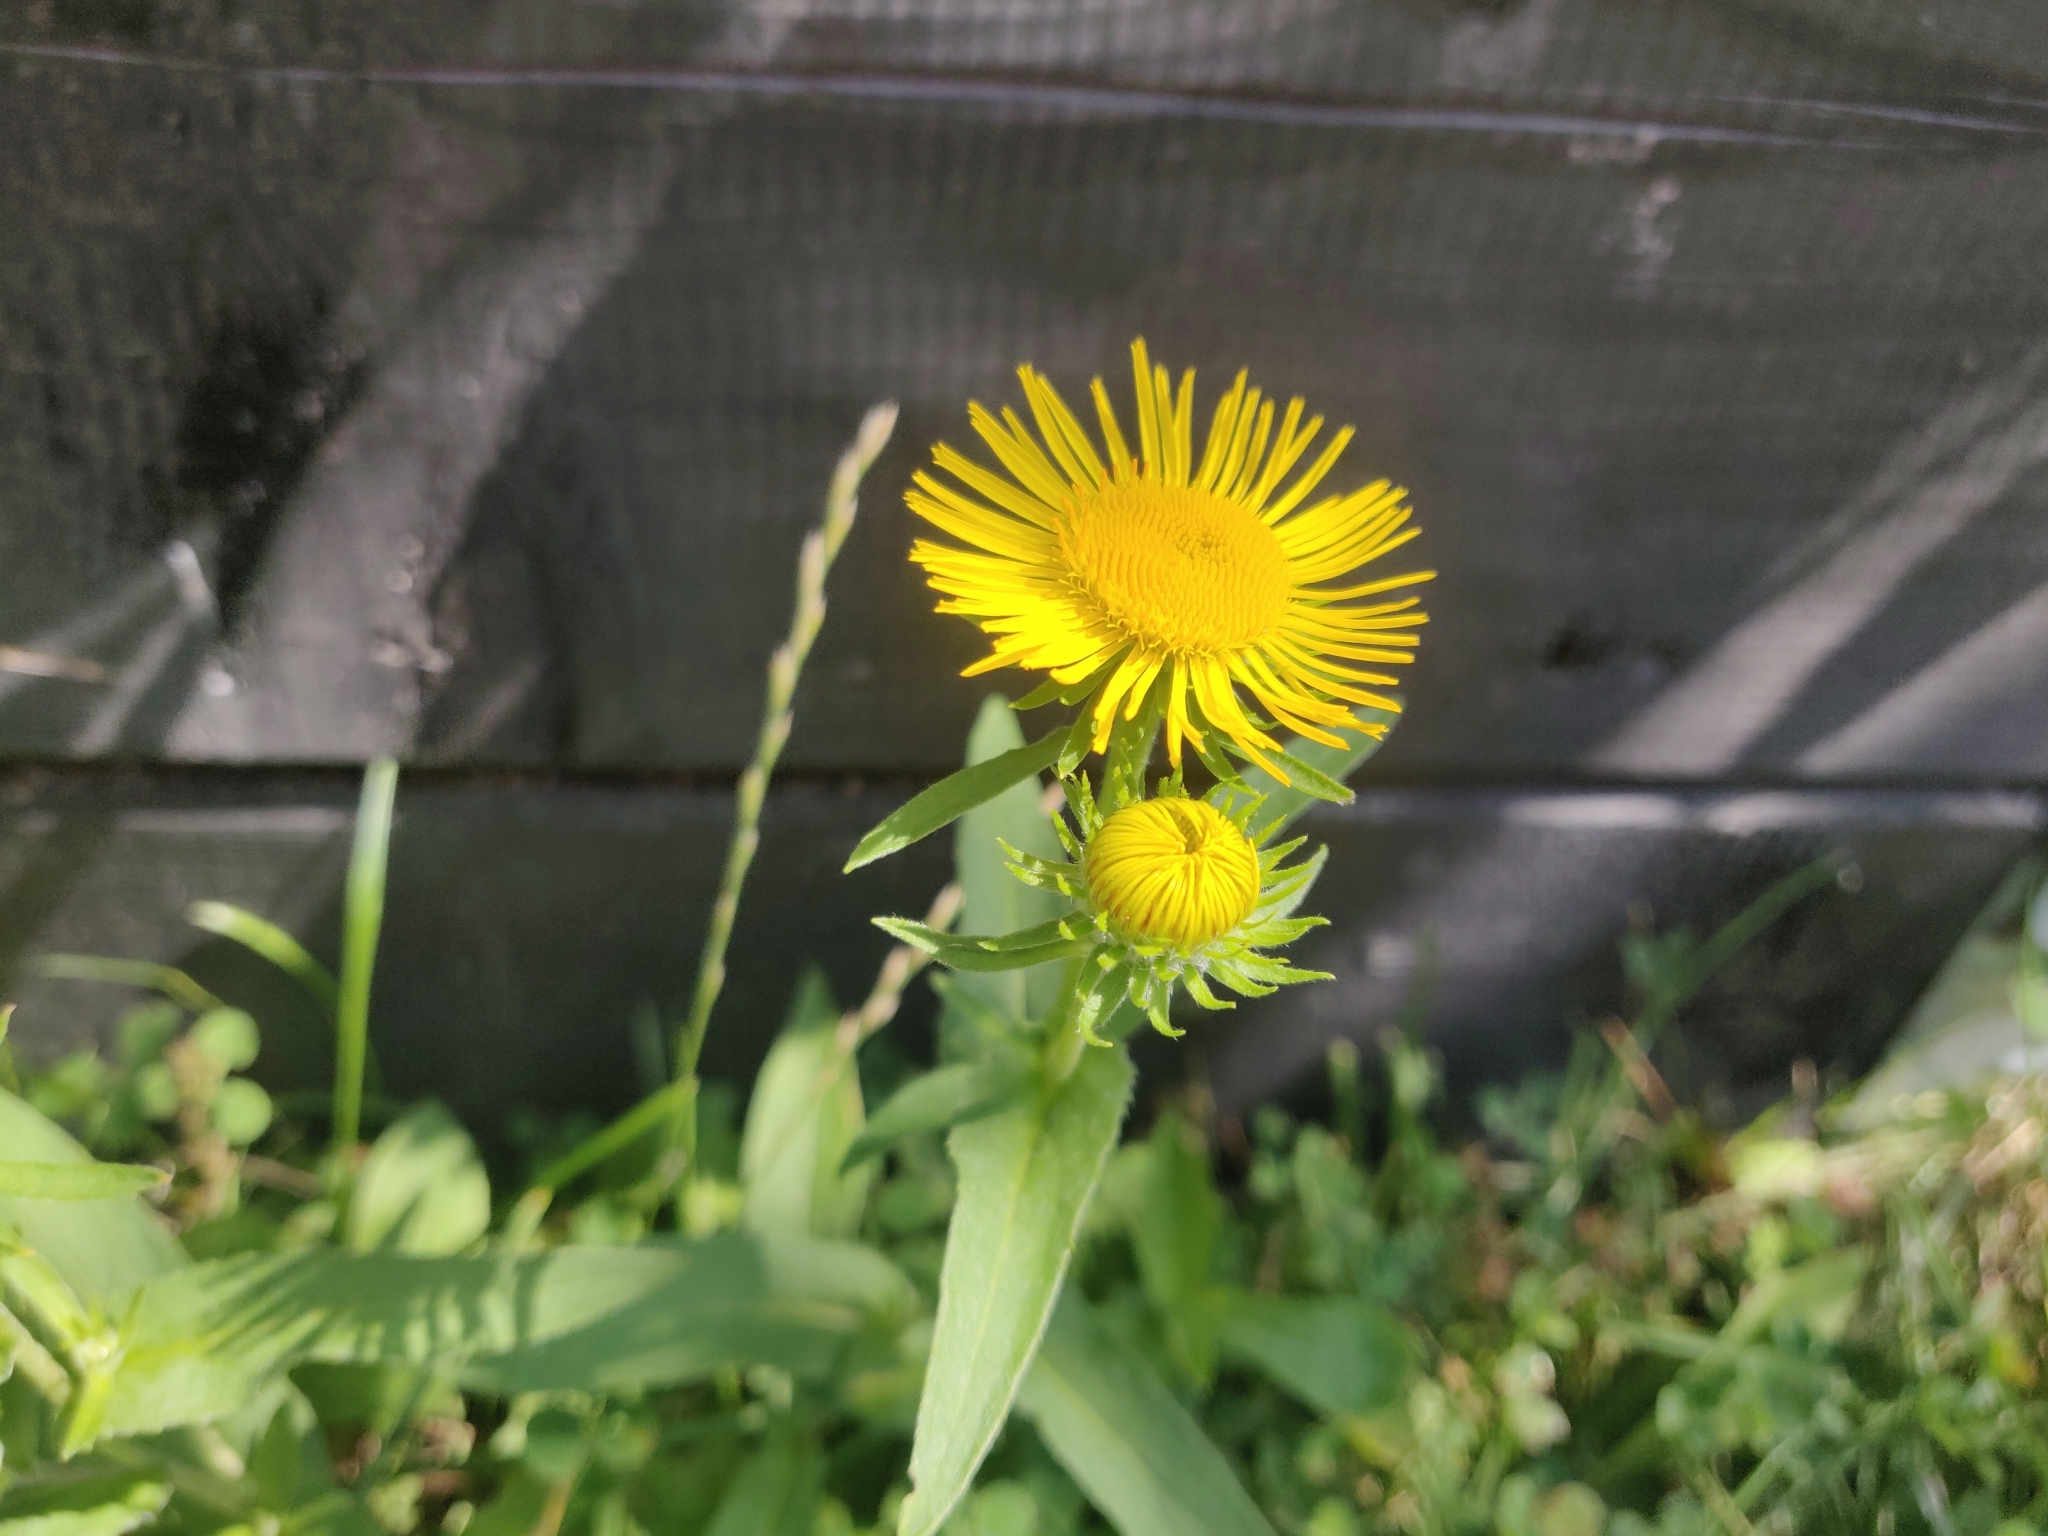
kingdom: Plantae
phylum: Tracheophyta
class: Magnoliopsida
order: Asterales
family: Asteraceae
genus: Pentanema
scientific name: Pentanema britannicum
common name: British elecampane
